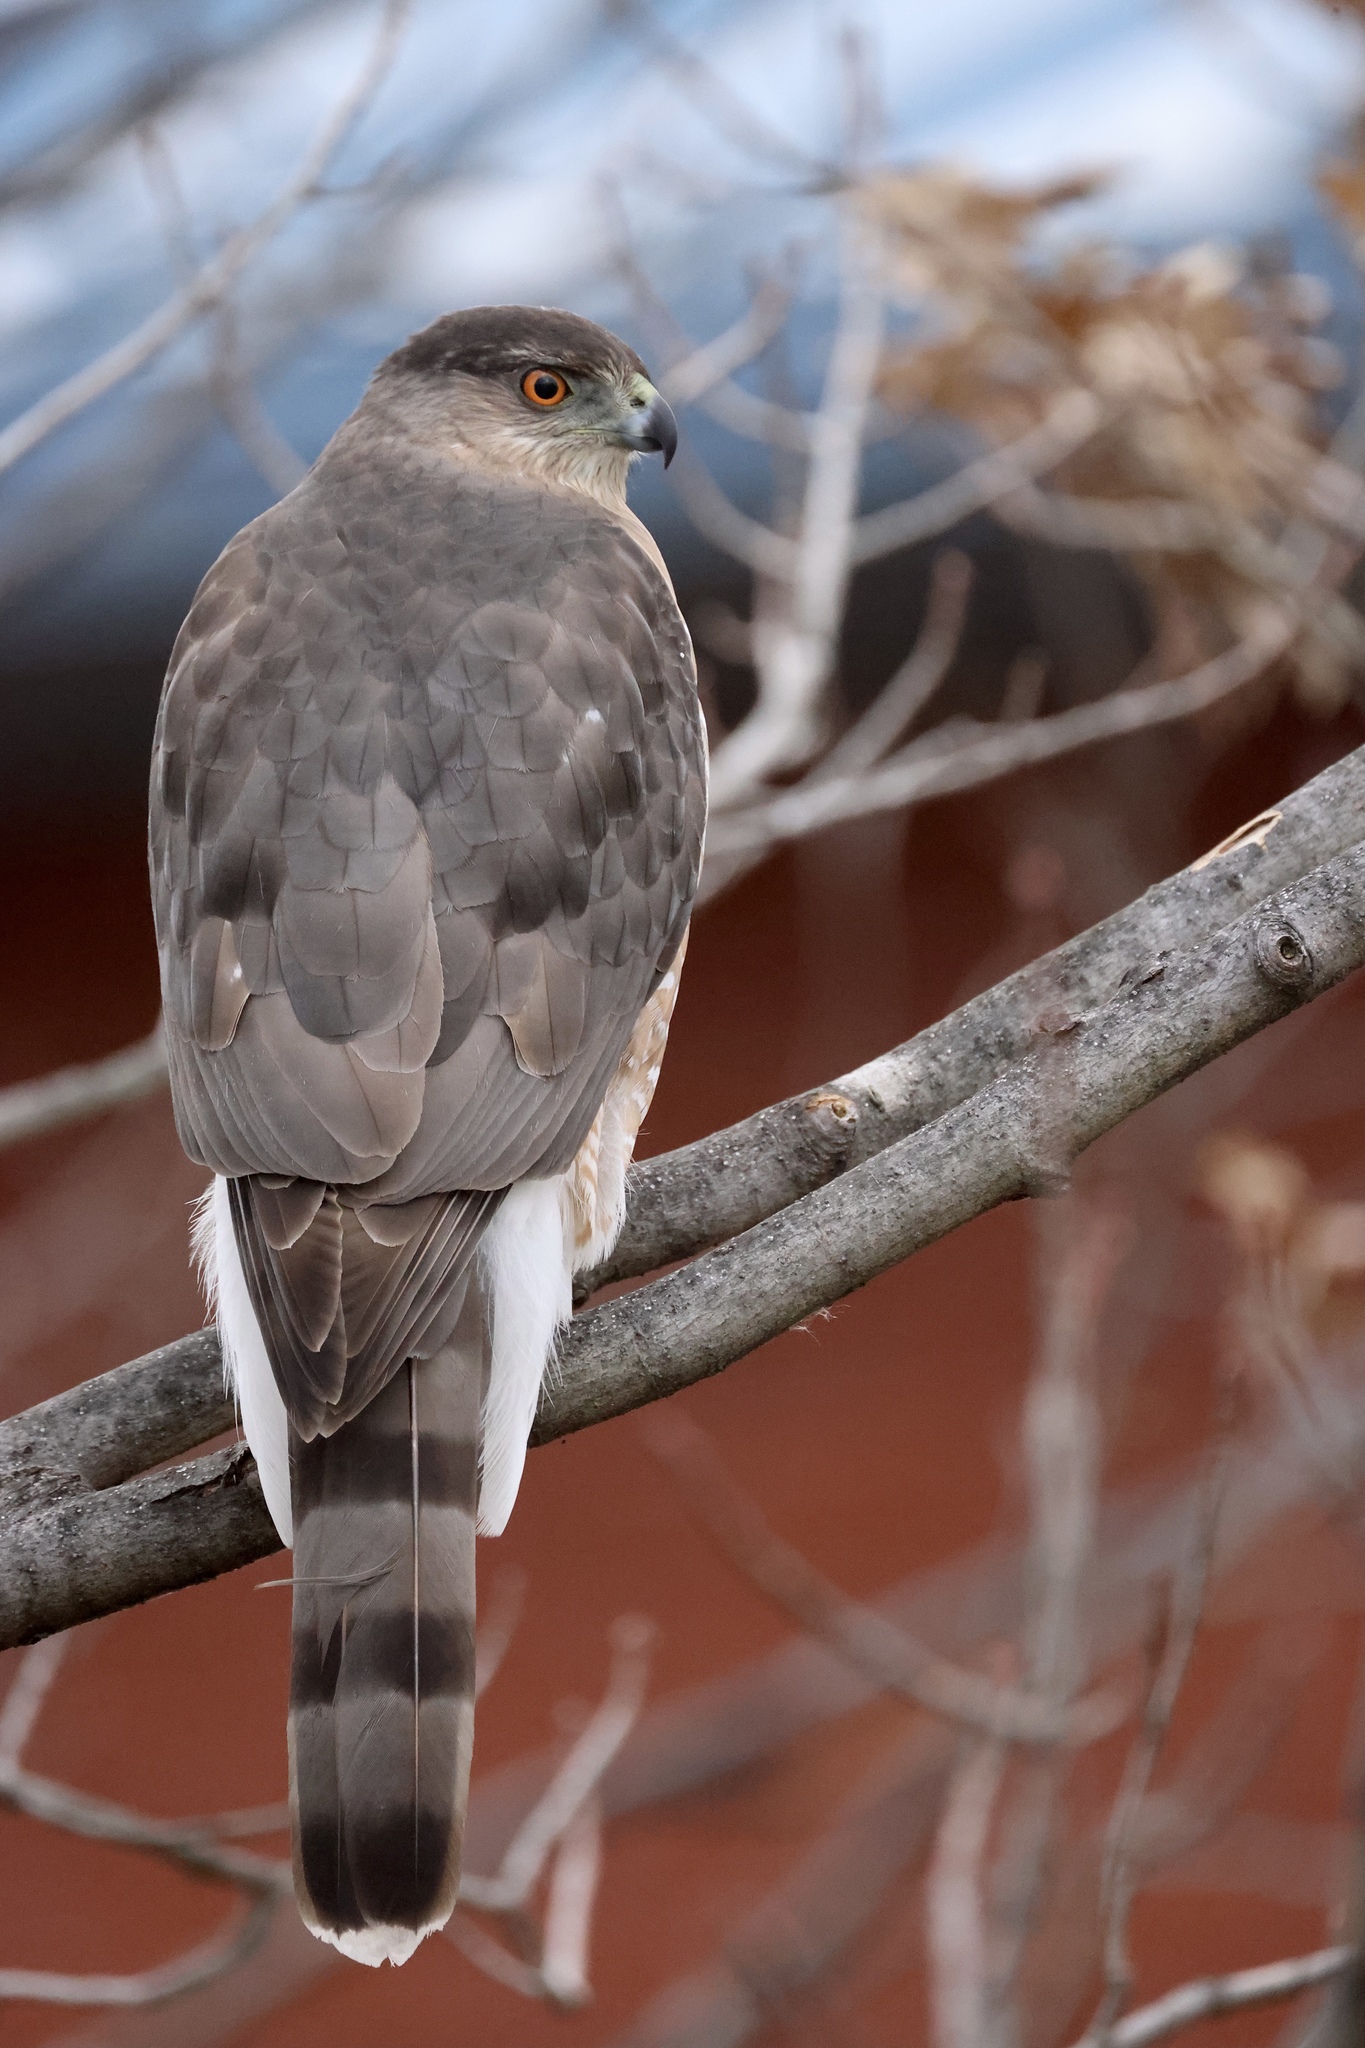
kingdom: Animalia
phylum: Chordata
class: Aves
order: Accipitriformes
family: Accipitridae
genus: Accipiter
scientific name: Accipiter cooperii
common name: Cooper's hawk
